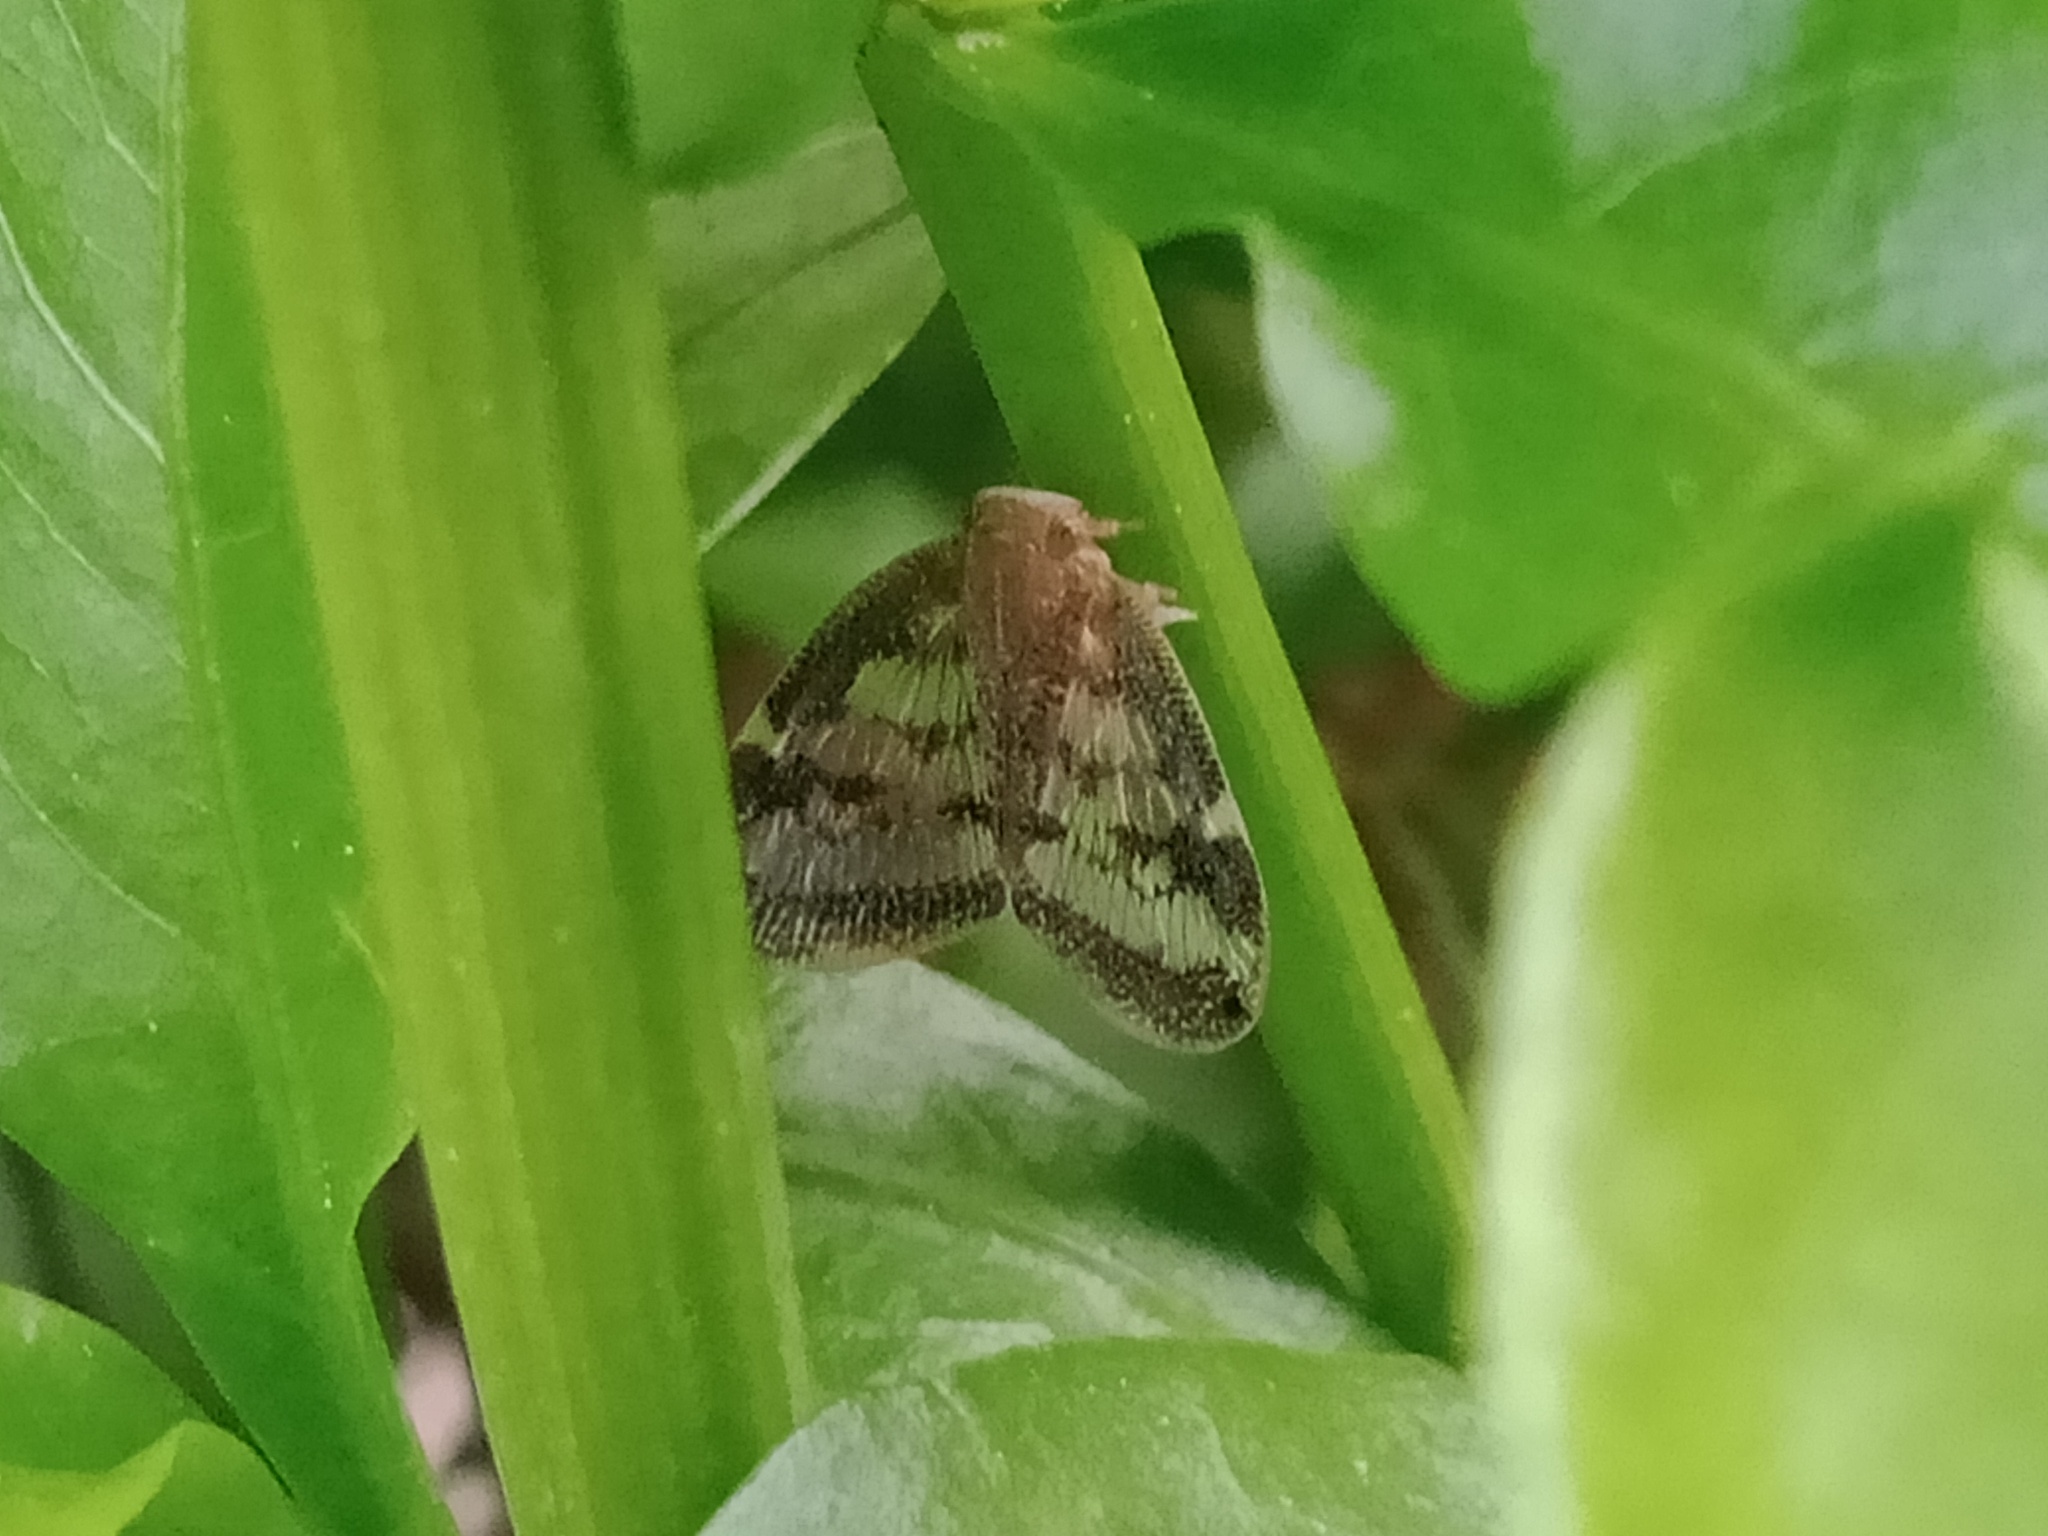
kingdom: Animalia
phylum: Arthropoda
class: Insecta
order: Hemiptera
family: Ricaniidae
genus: Scolypopa
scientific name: Scolypopa australis
